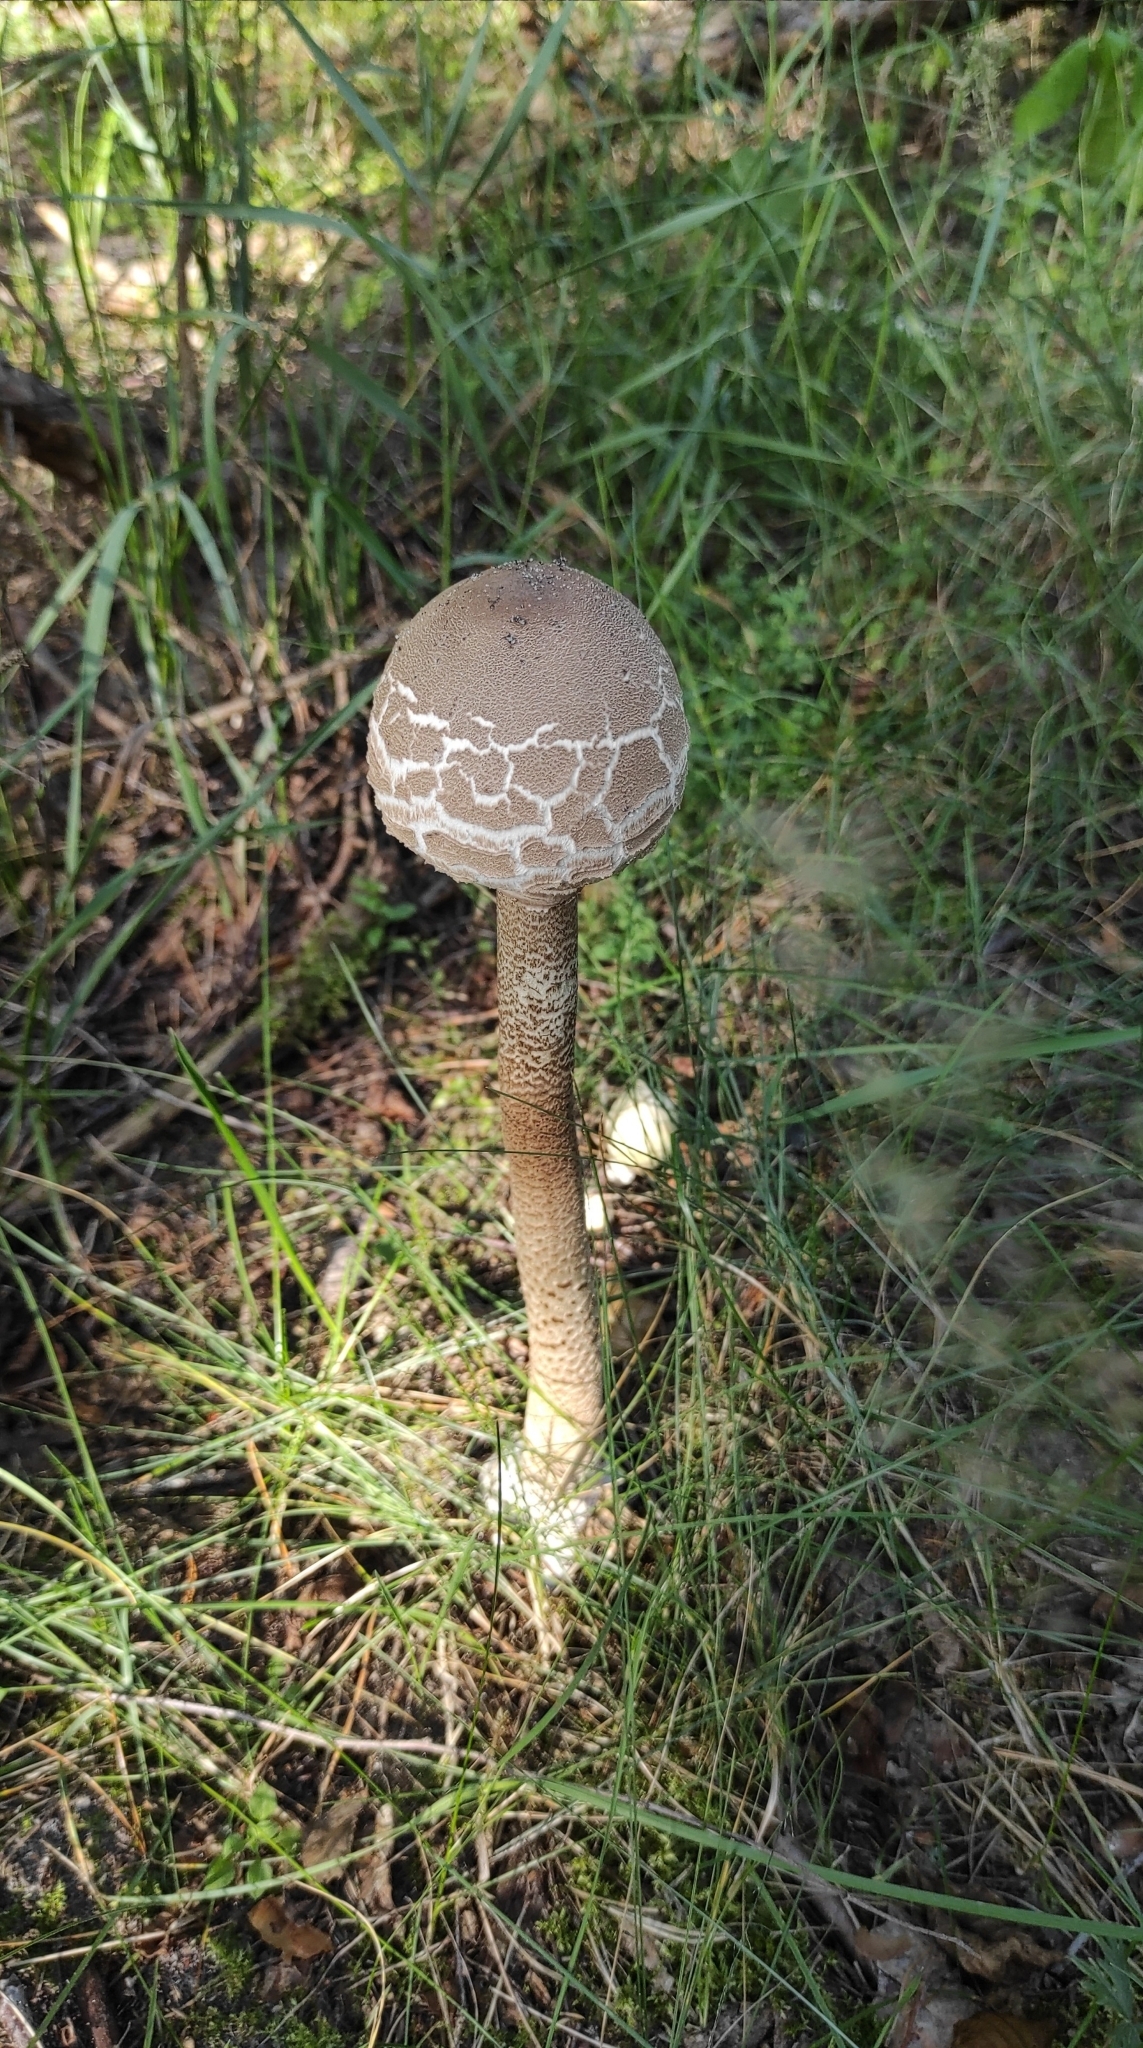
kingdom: Fungi
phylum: Basidiomycota
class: Agaricomycetes
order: Agaricales
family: Agaricaceae
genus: Macrolepiota
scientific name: Macrolepiota procera
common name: Parasol
